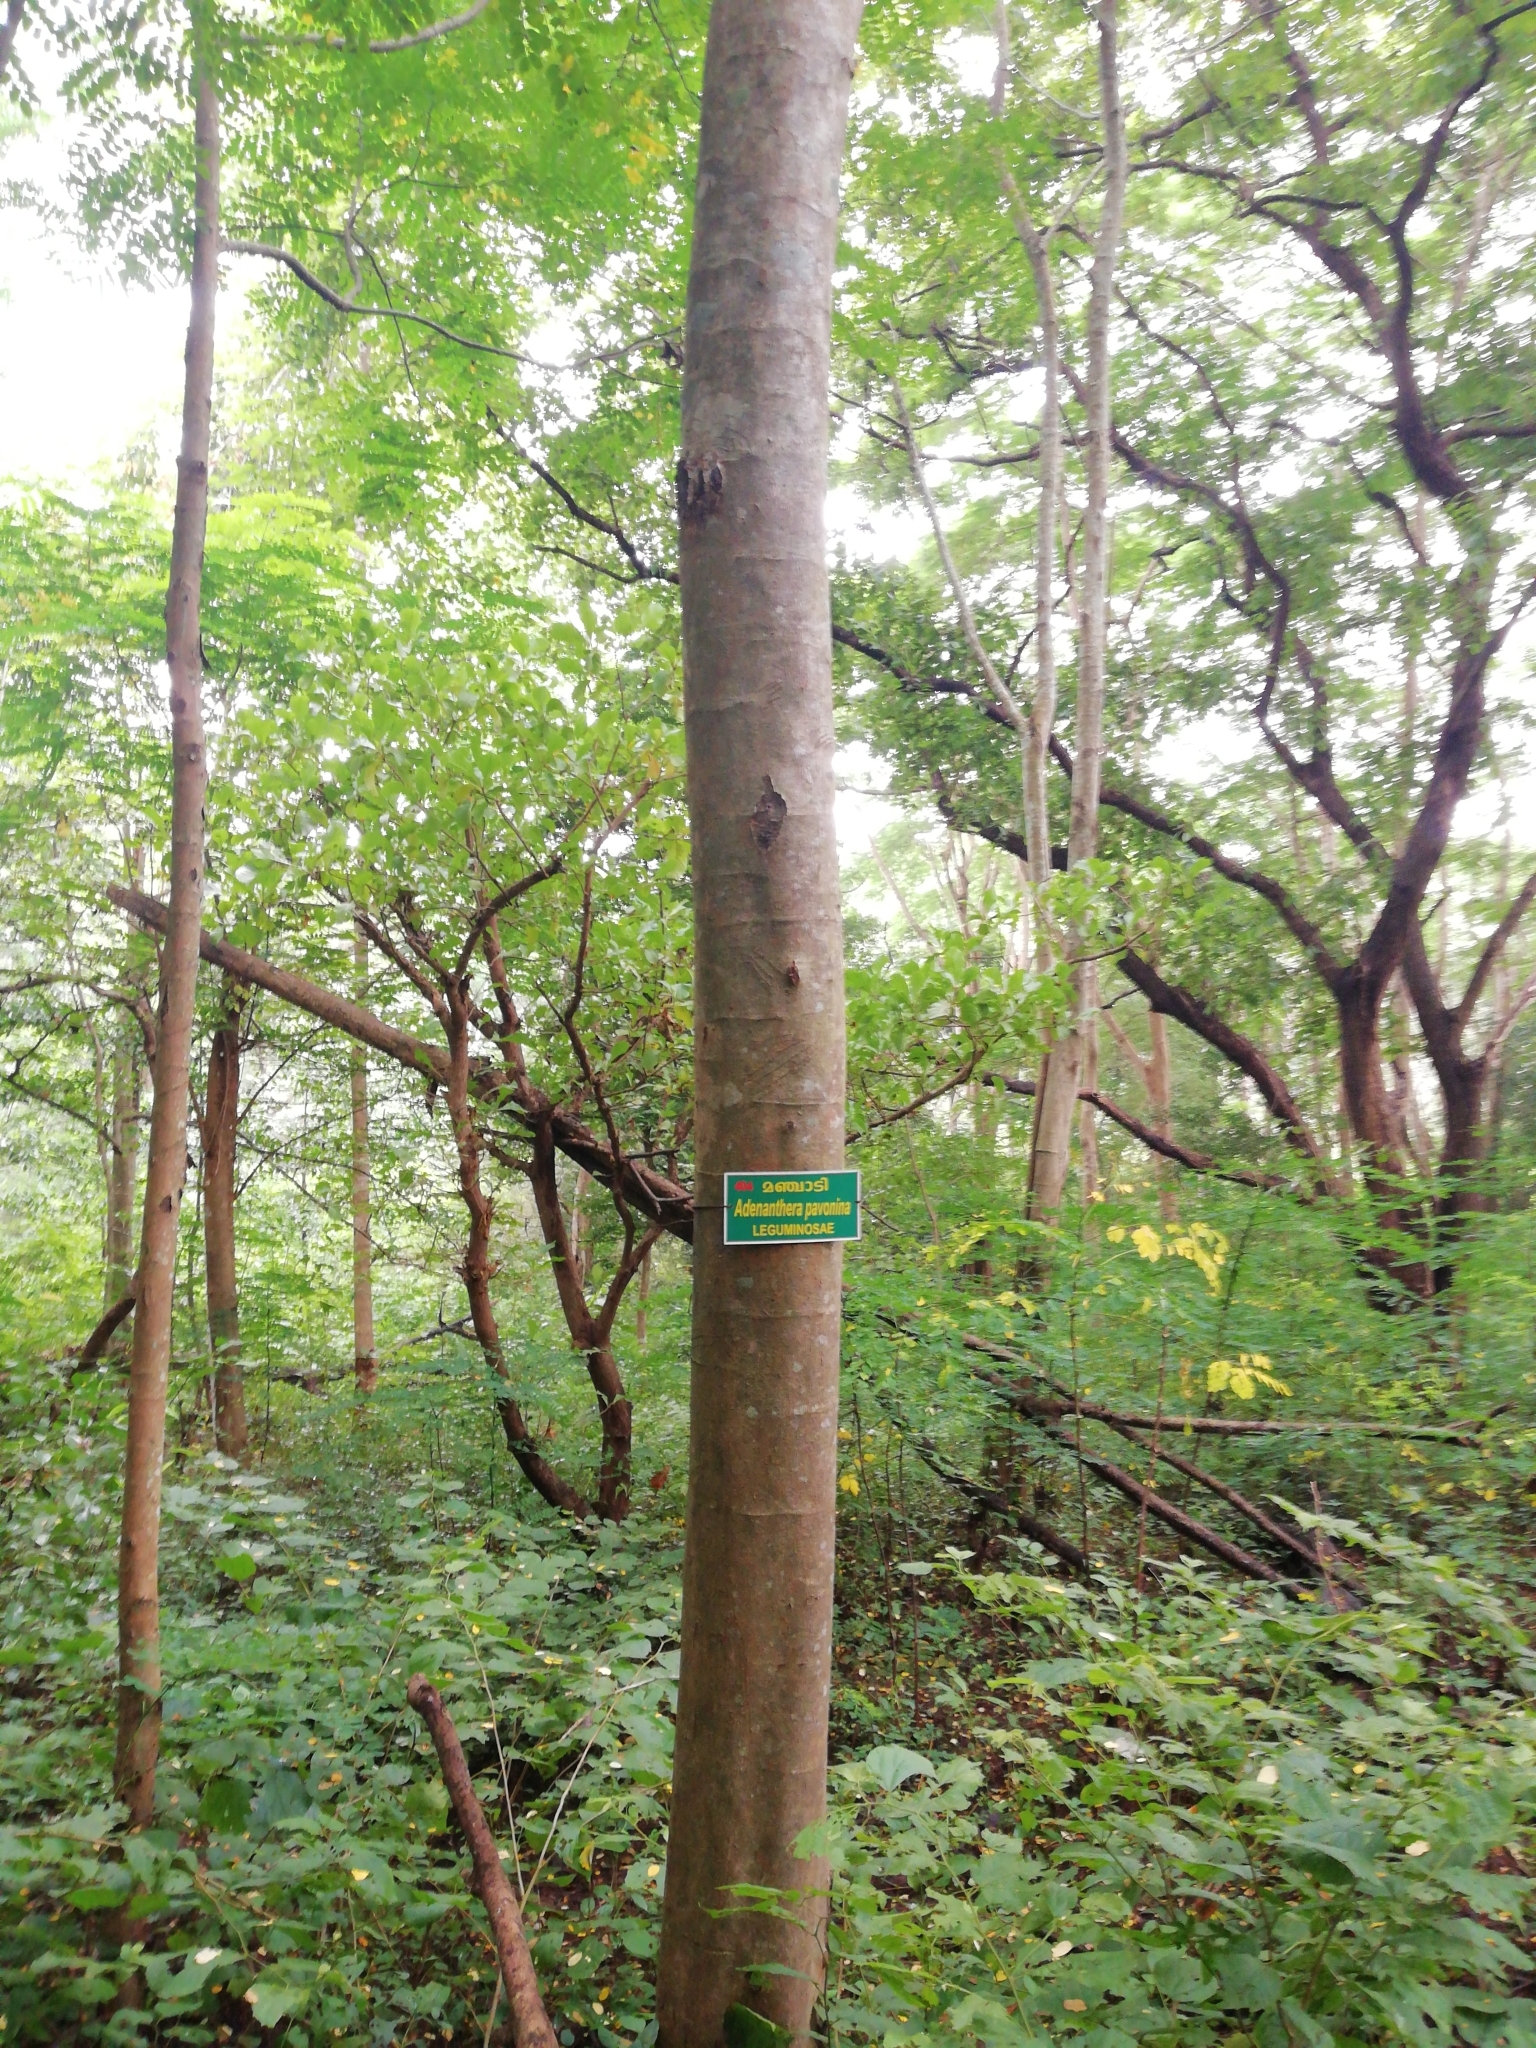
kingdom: Plantae
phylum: Tracheophyta
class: Magnoliopsida
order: Fabales
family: Fabaceae
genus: Adenanthera
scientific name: Adenanthera pavonina
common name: Red beadtree
